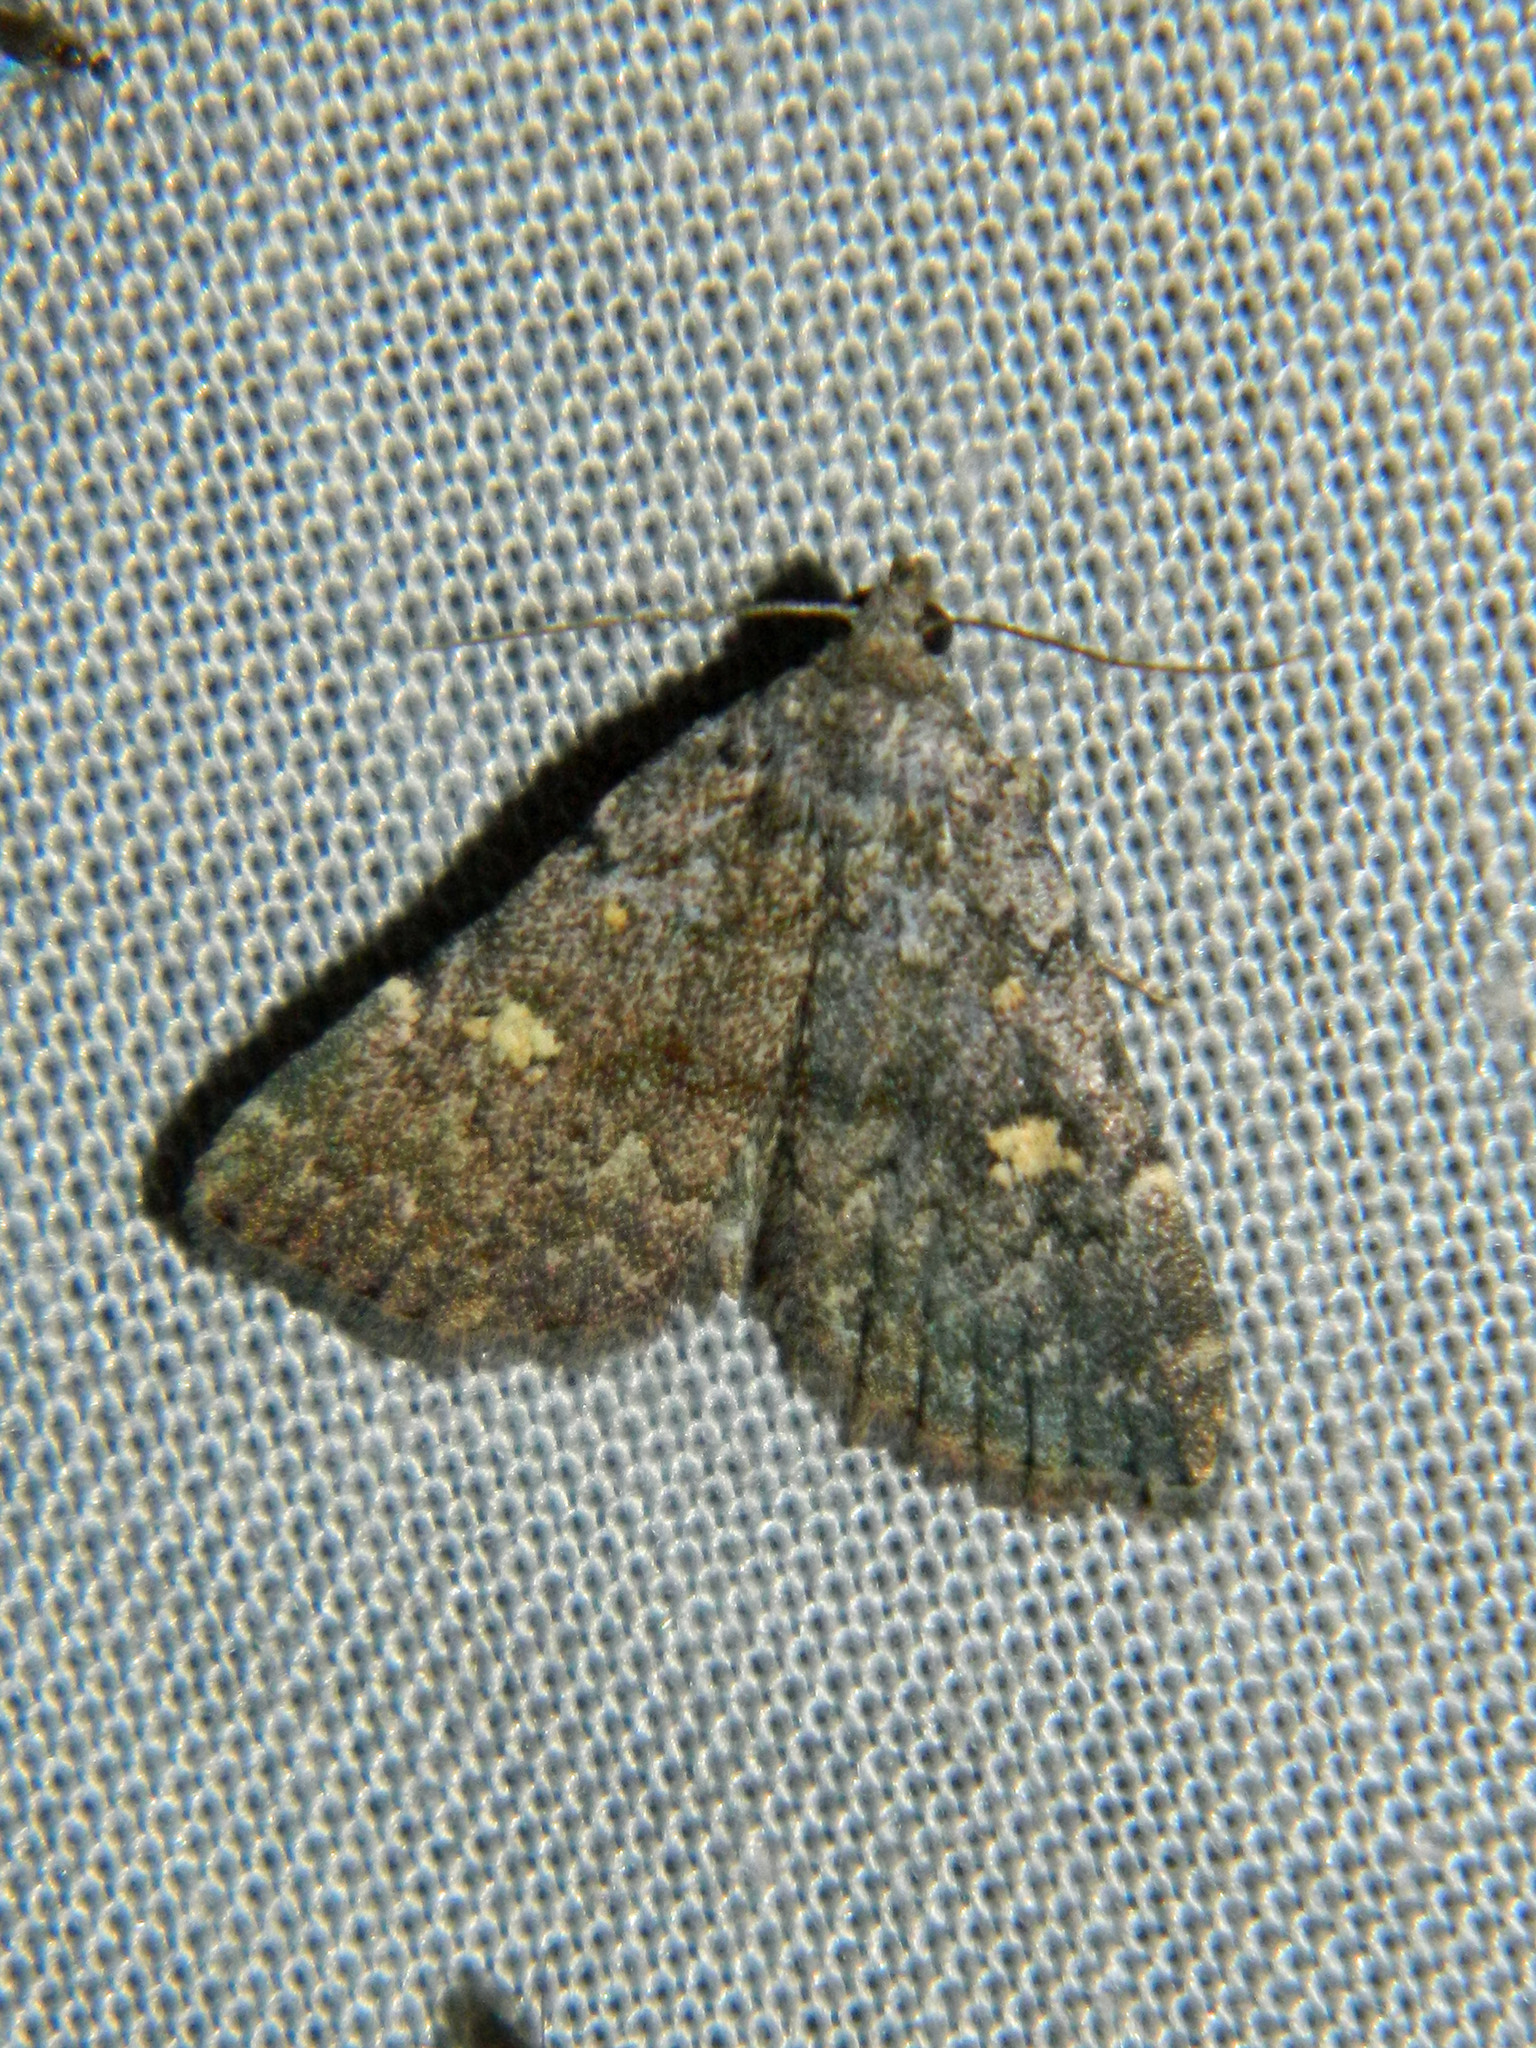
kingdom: Animalia
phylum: Arthropoda
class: Insecta
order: Lepidoptera
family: Erebidae
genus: Idia
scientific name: Idia aemula
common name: Common idia moth
